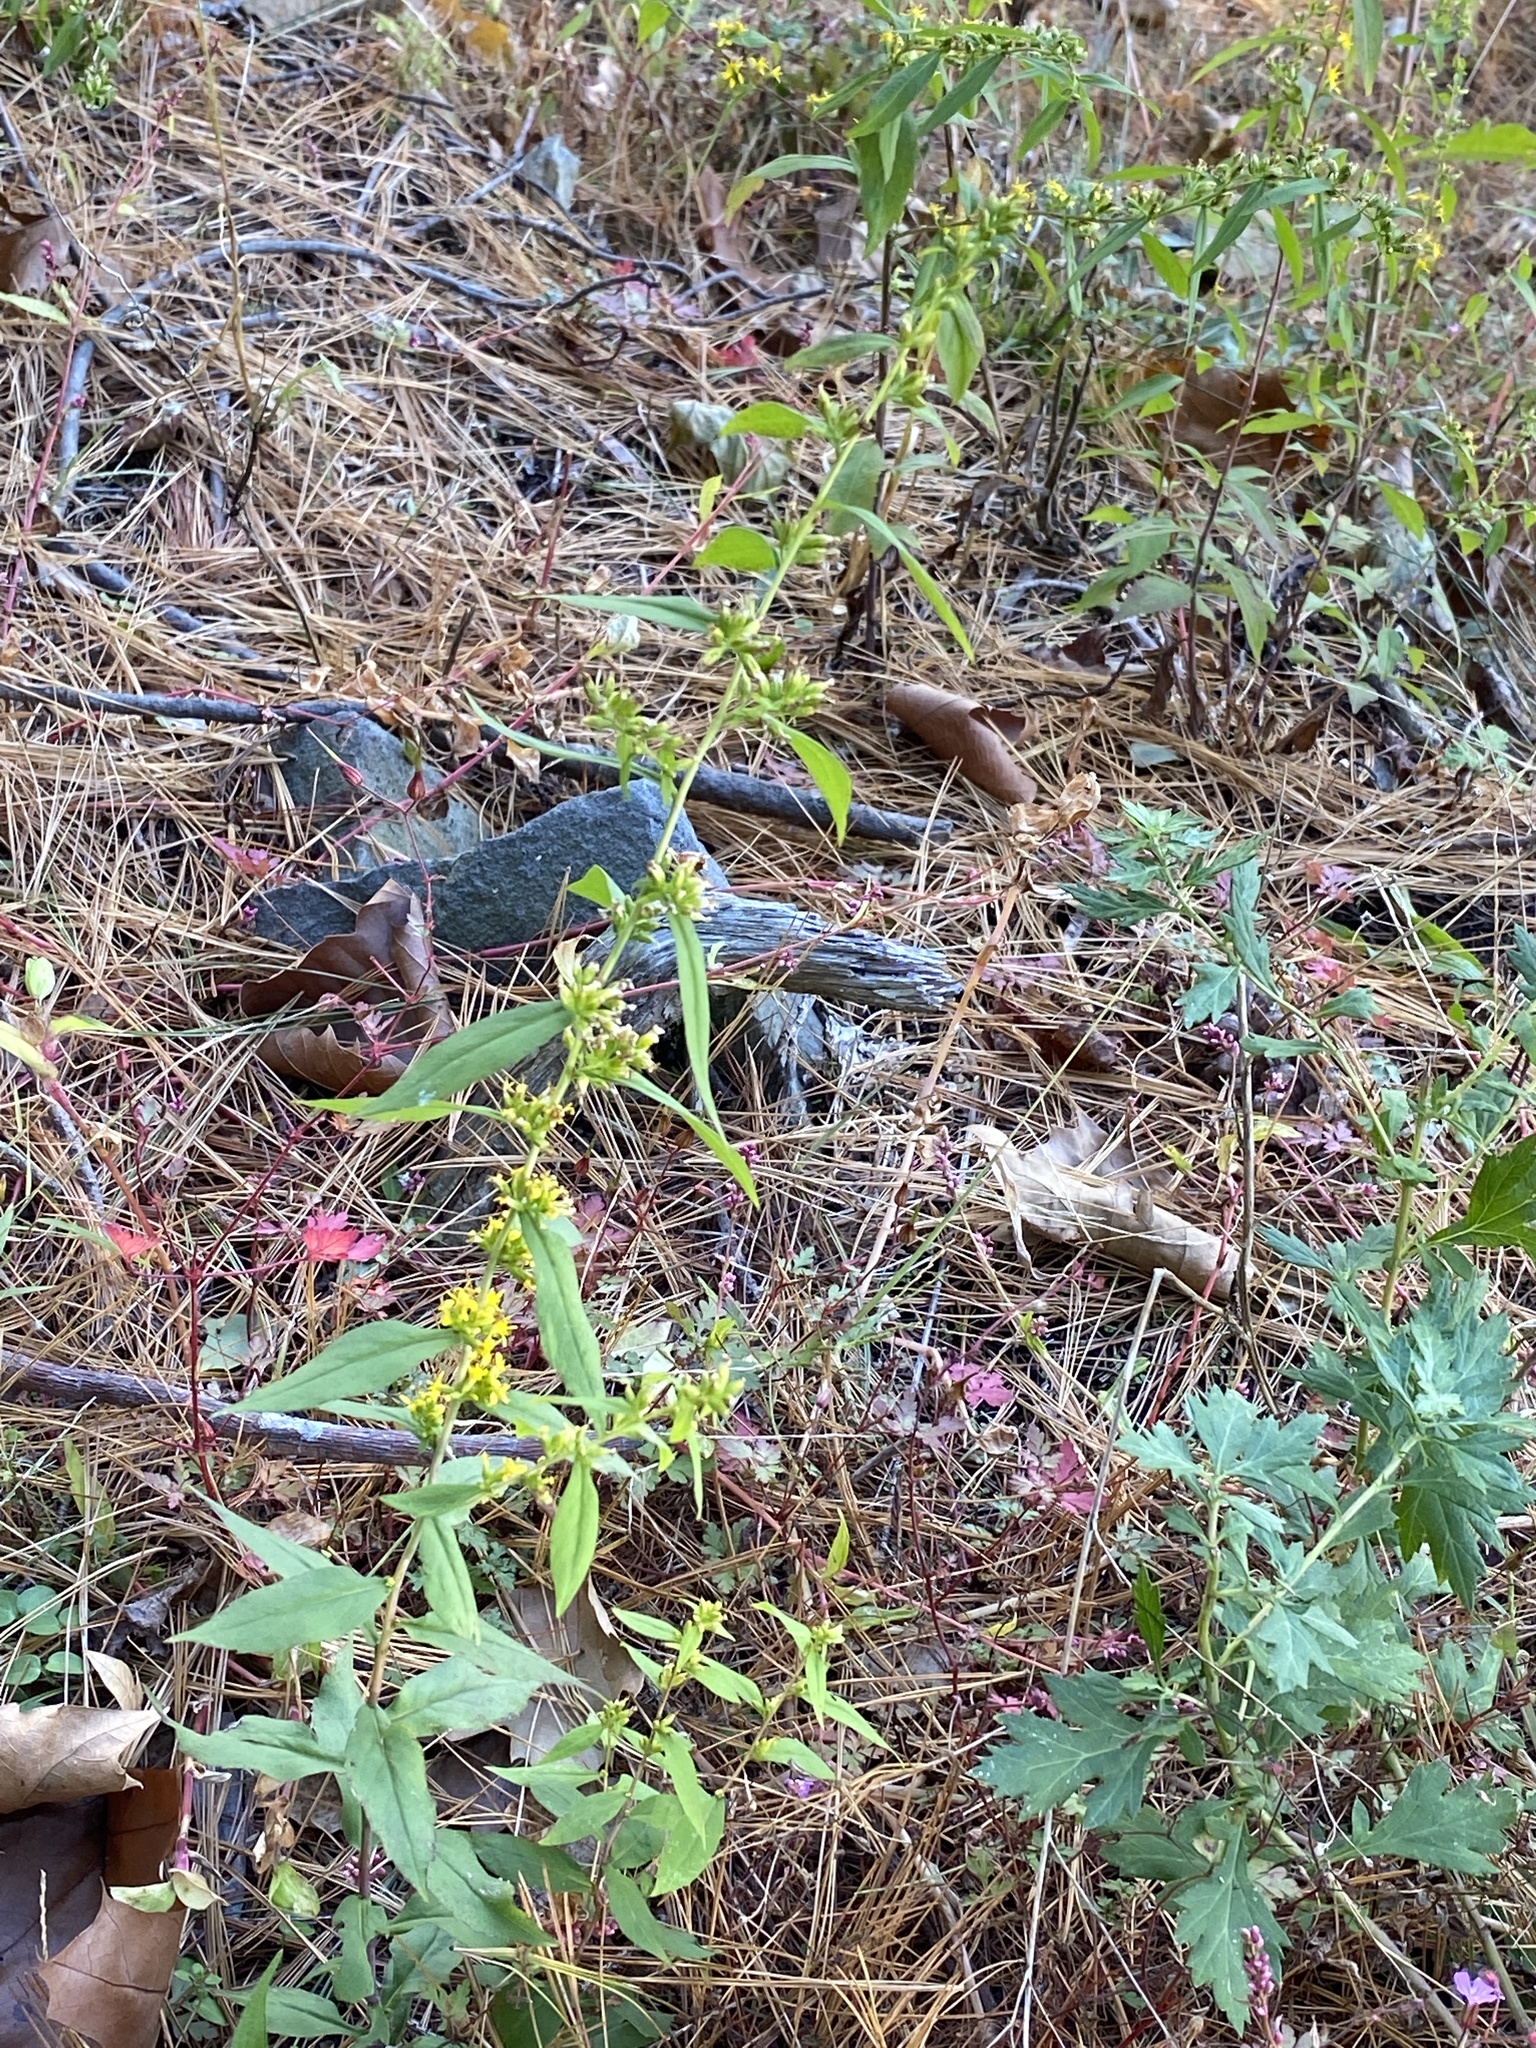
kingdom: Plantae
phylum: Tracheophyta
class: Magnoliopsida
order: Asterales
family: Asteraceae
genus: Solidago
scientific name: Solidago caesia
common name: Woodland goldenrod
